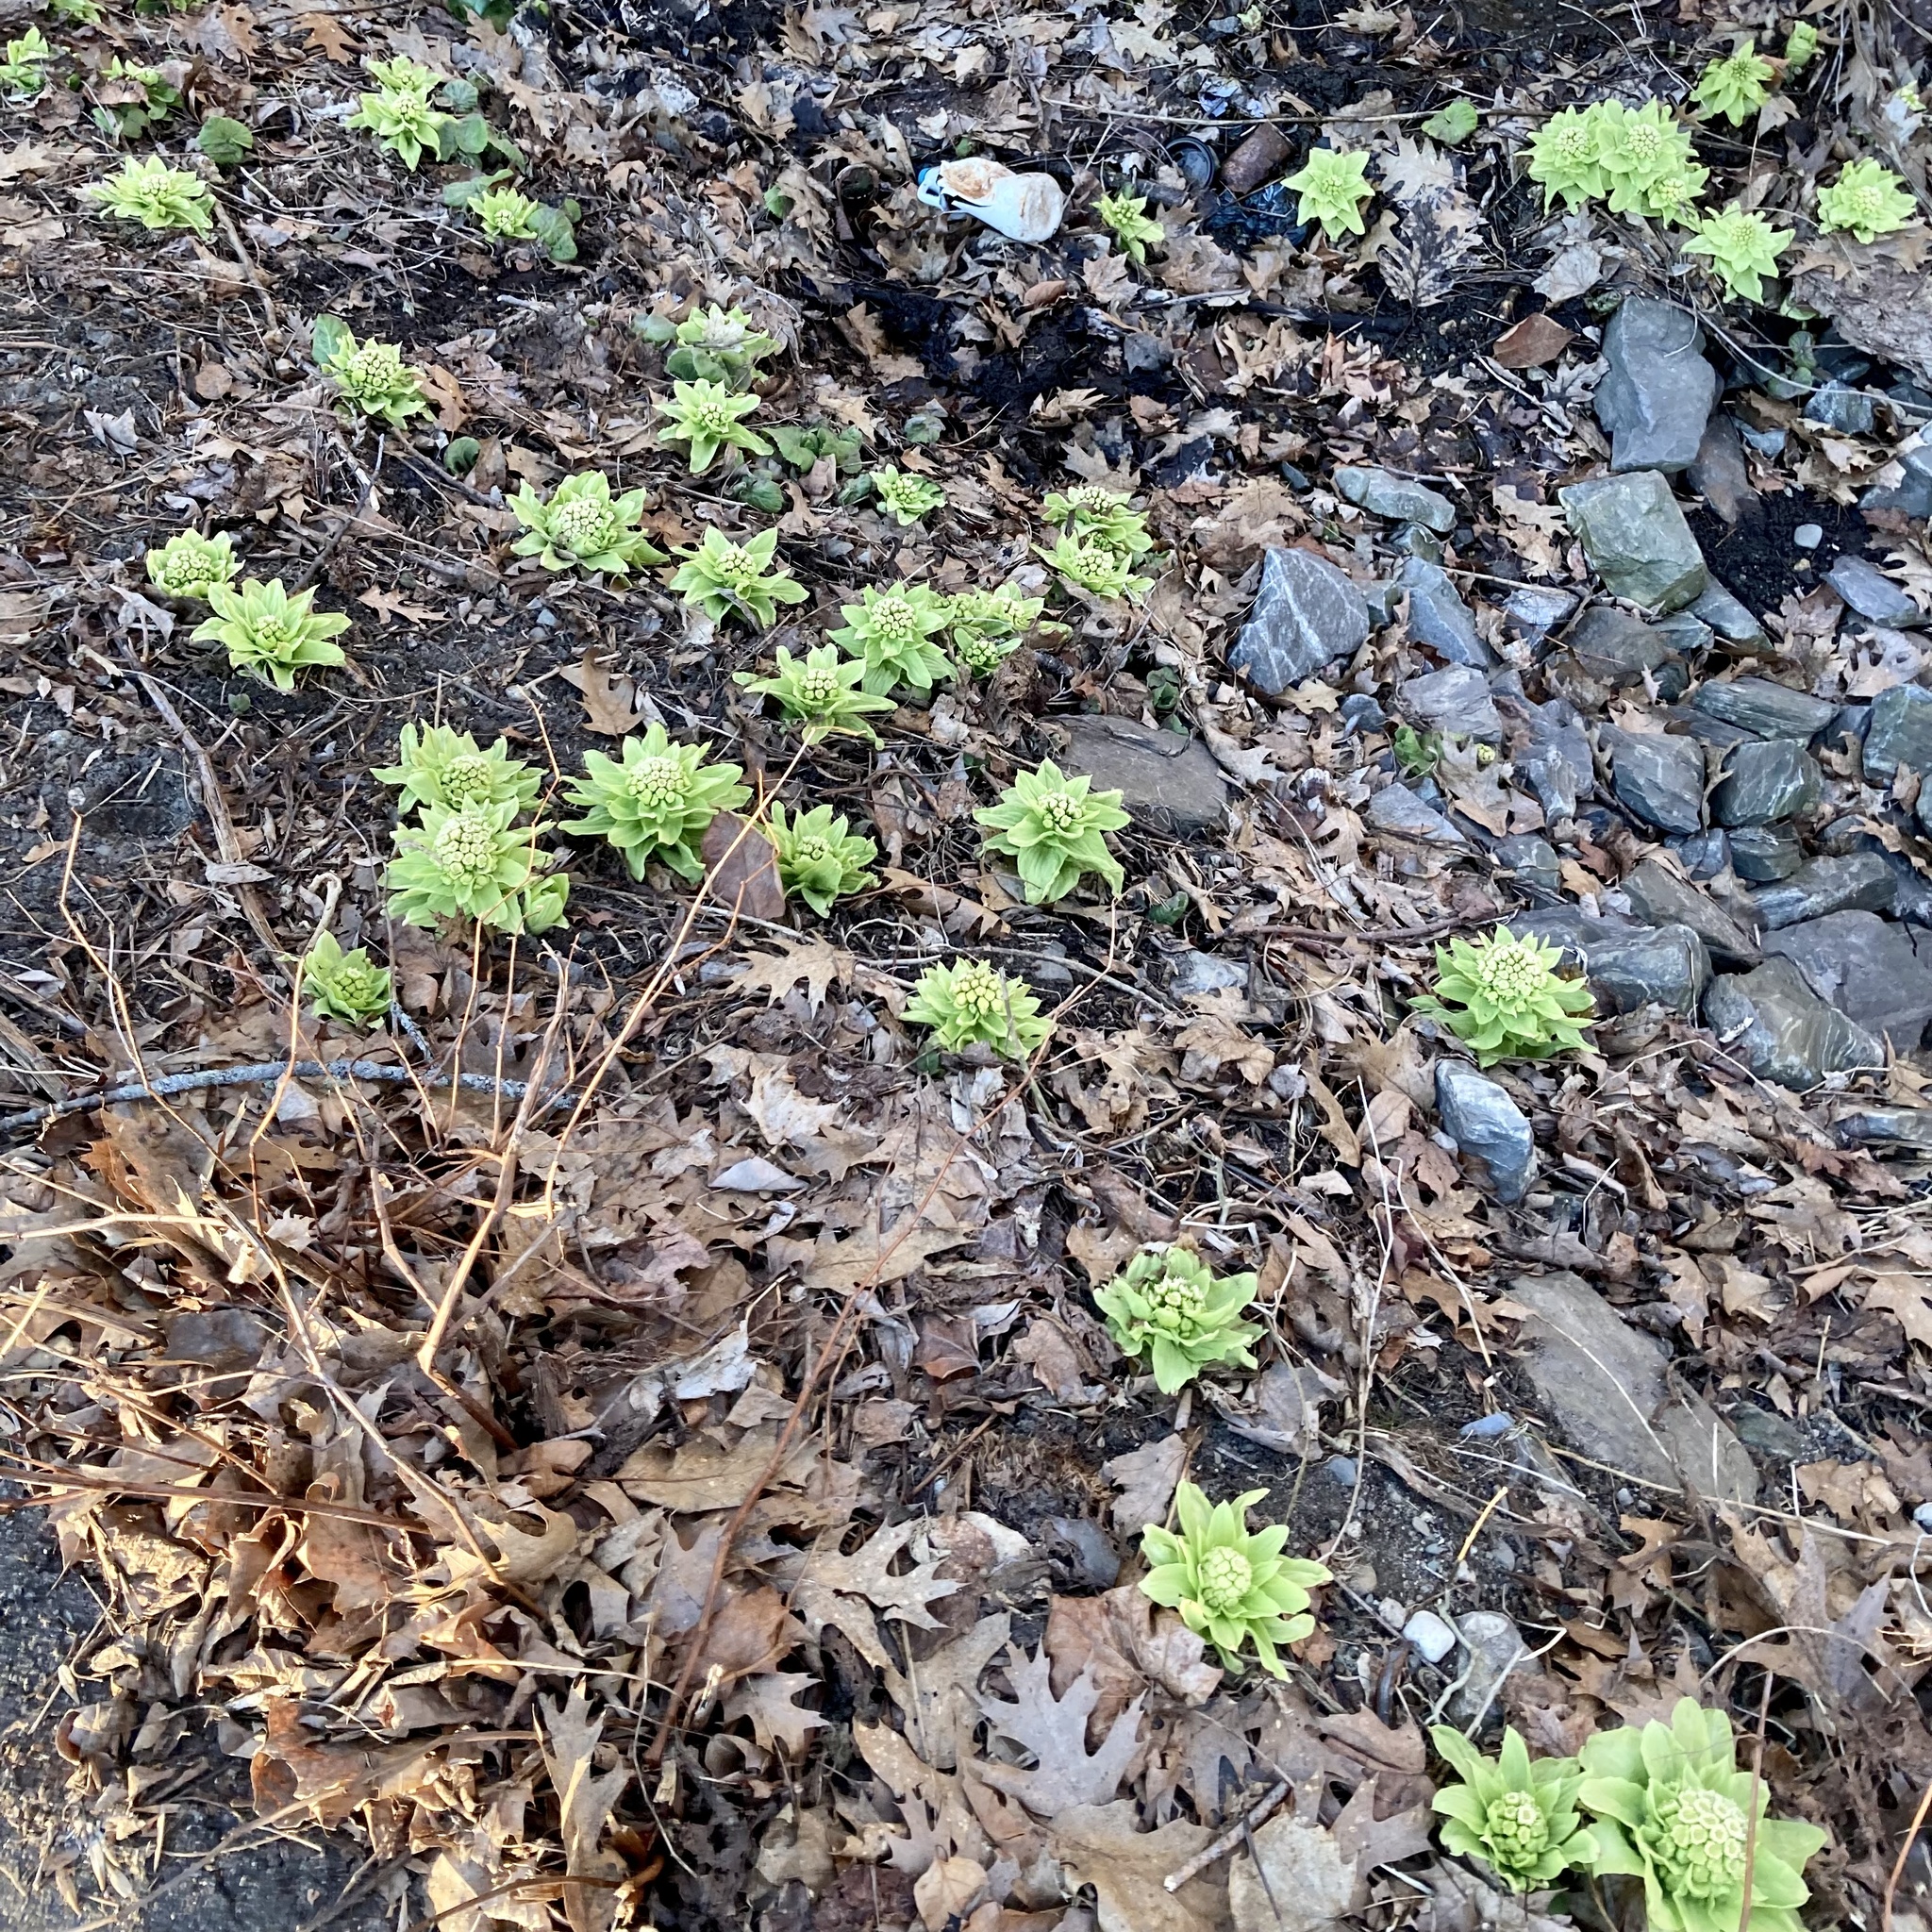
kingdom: Plantae
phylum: Tracheophyta
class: Magnoliopsida
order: Asterales
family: Asteraceae
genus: Petasites
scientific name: Petasites japonicus
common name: Giant butterbur
